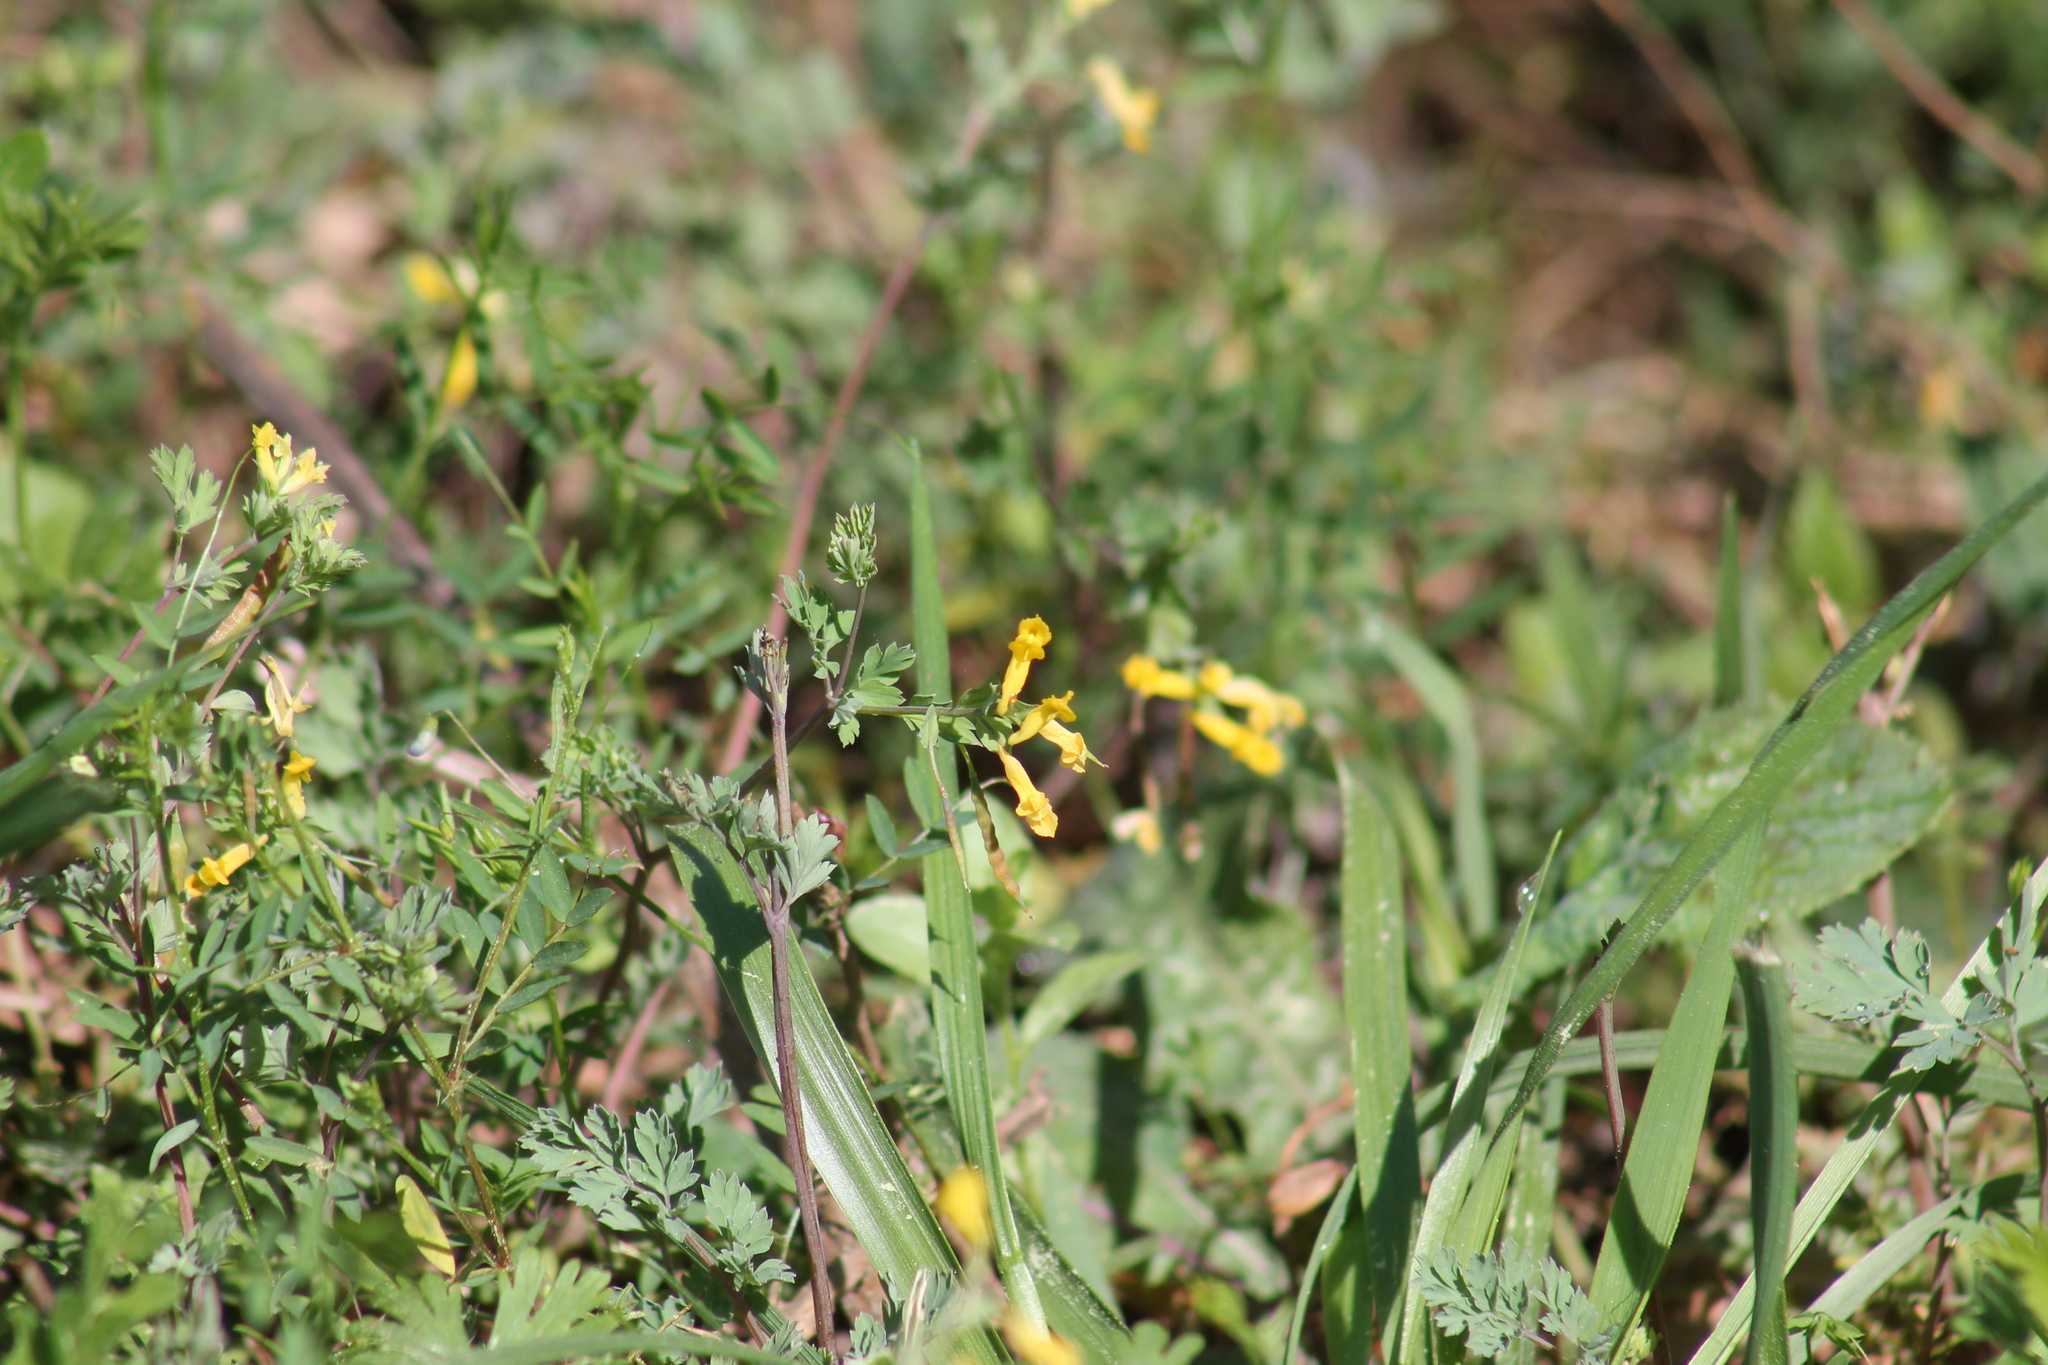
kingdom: Plantae
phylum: Tracheophyta
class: Magnoliopsida
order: Ranunculales
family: Papaveraceae
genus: Corydalis
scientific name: Corydalis flavula
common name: Yellow corydalis
